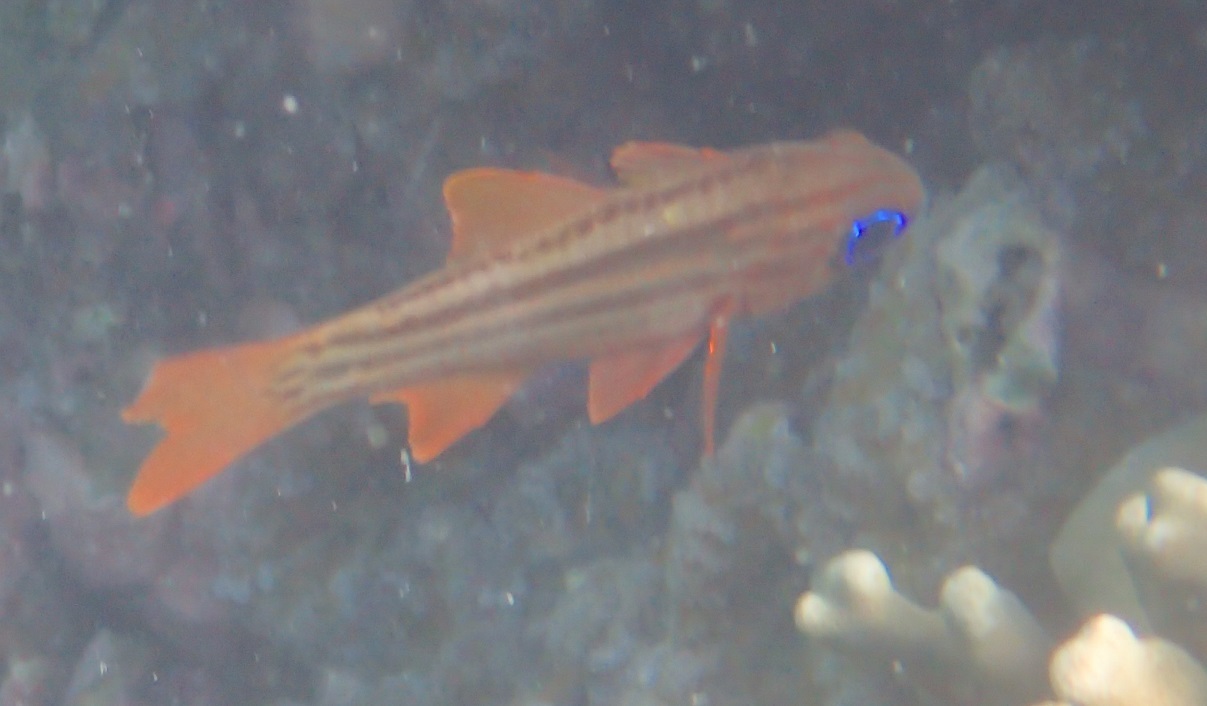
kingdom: Animalia
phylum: Chordata
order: Perciformes
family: Apogonidae
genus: Ostorhinchus
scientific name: Ostorhinchus compressus
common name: Ochre-striped cardinalfish
